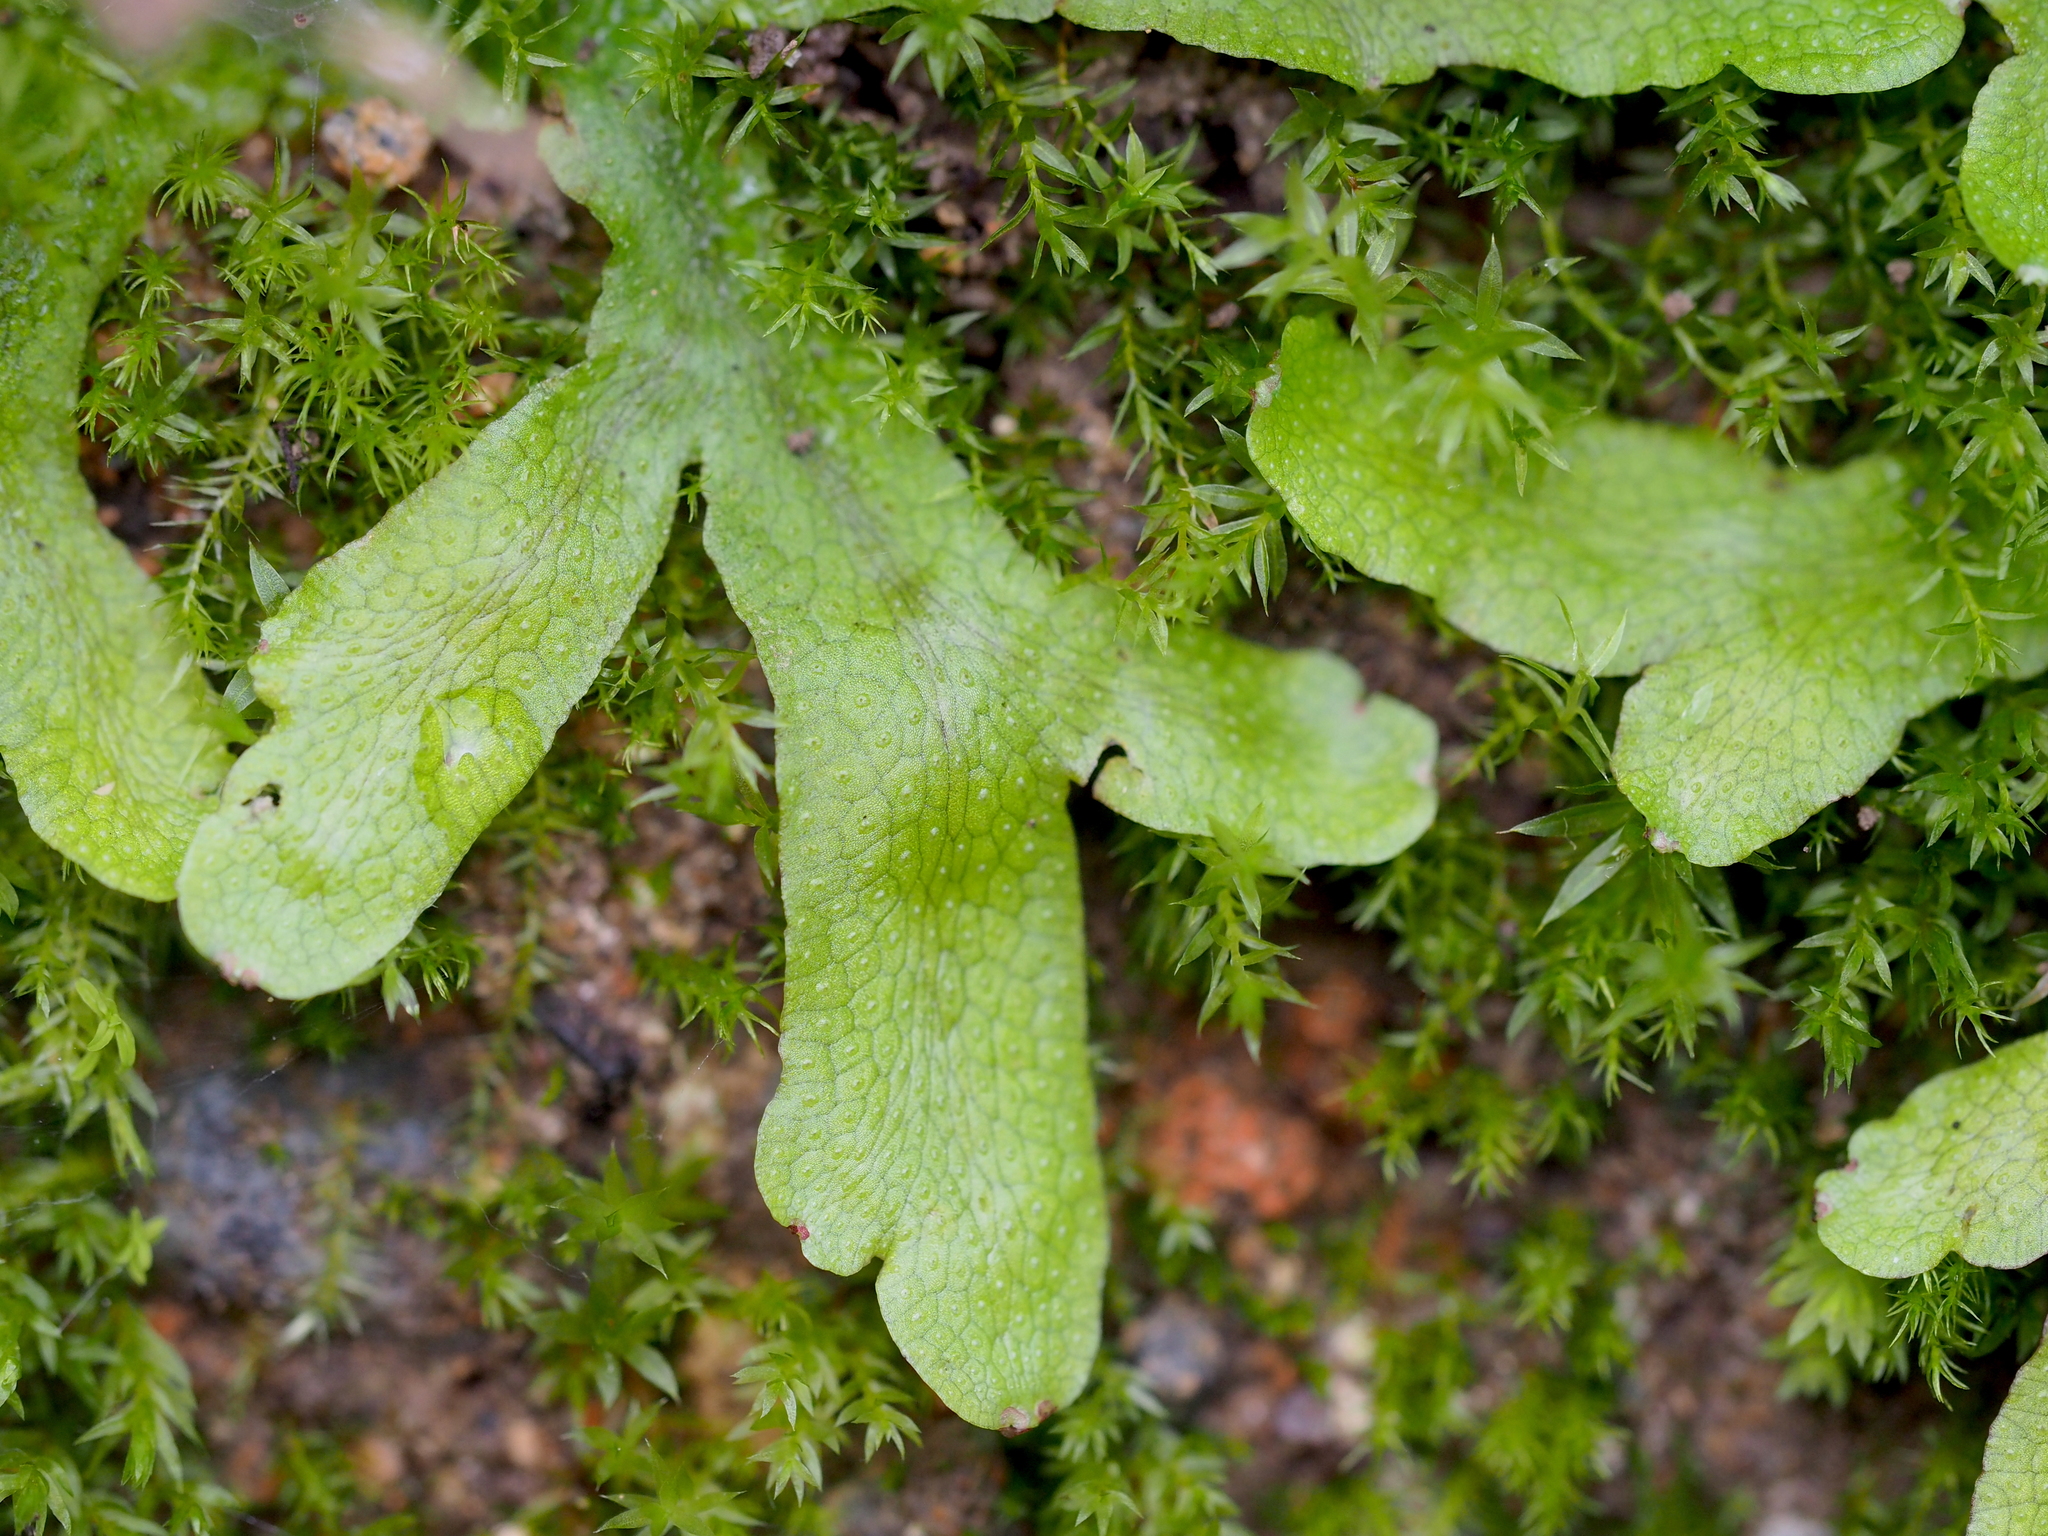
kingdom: Plantae
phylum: Marchantiophyta
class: Marchantiopsida
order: Marchantiales
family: Conocephalaceae
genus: Conocephalum
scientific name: Conocephalum salebrosum
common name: Cat-tongue liverwort
